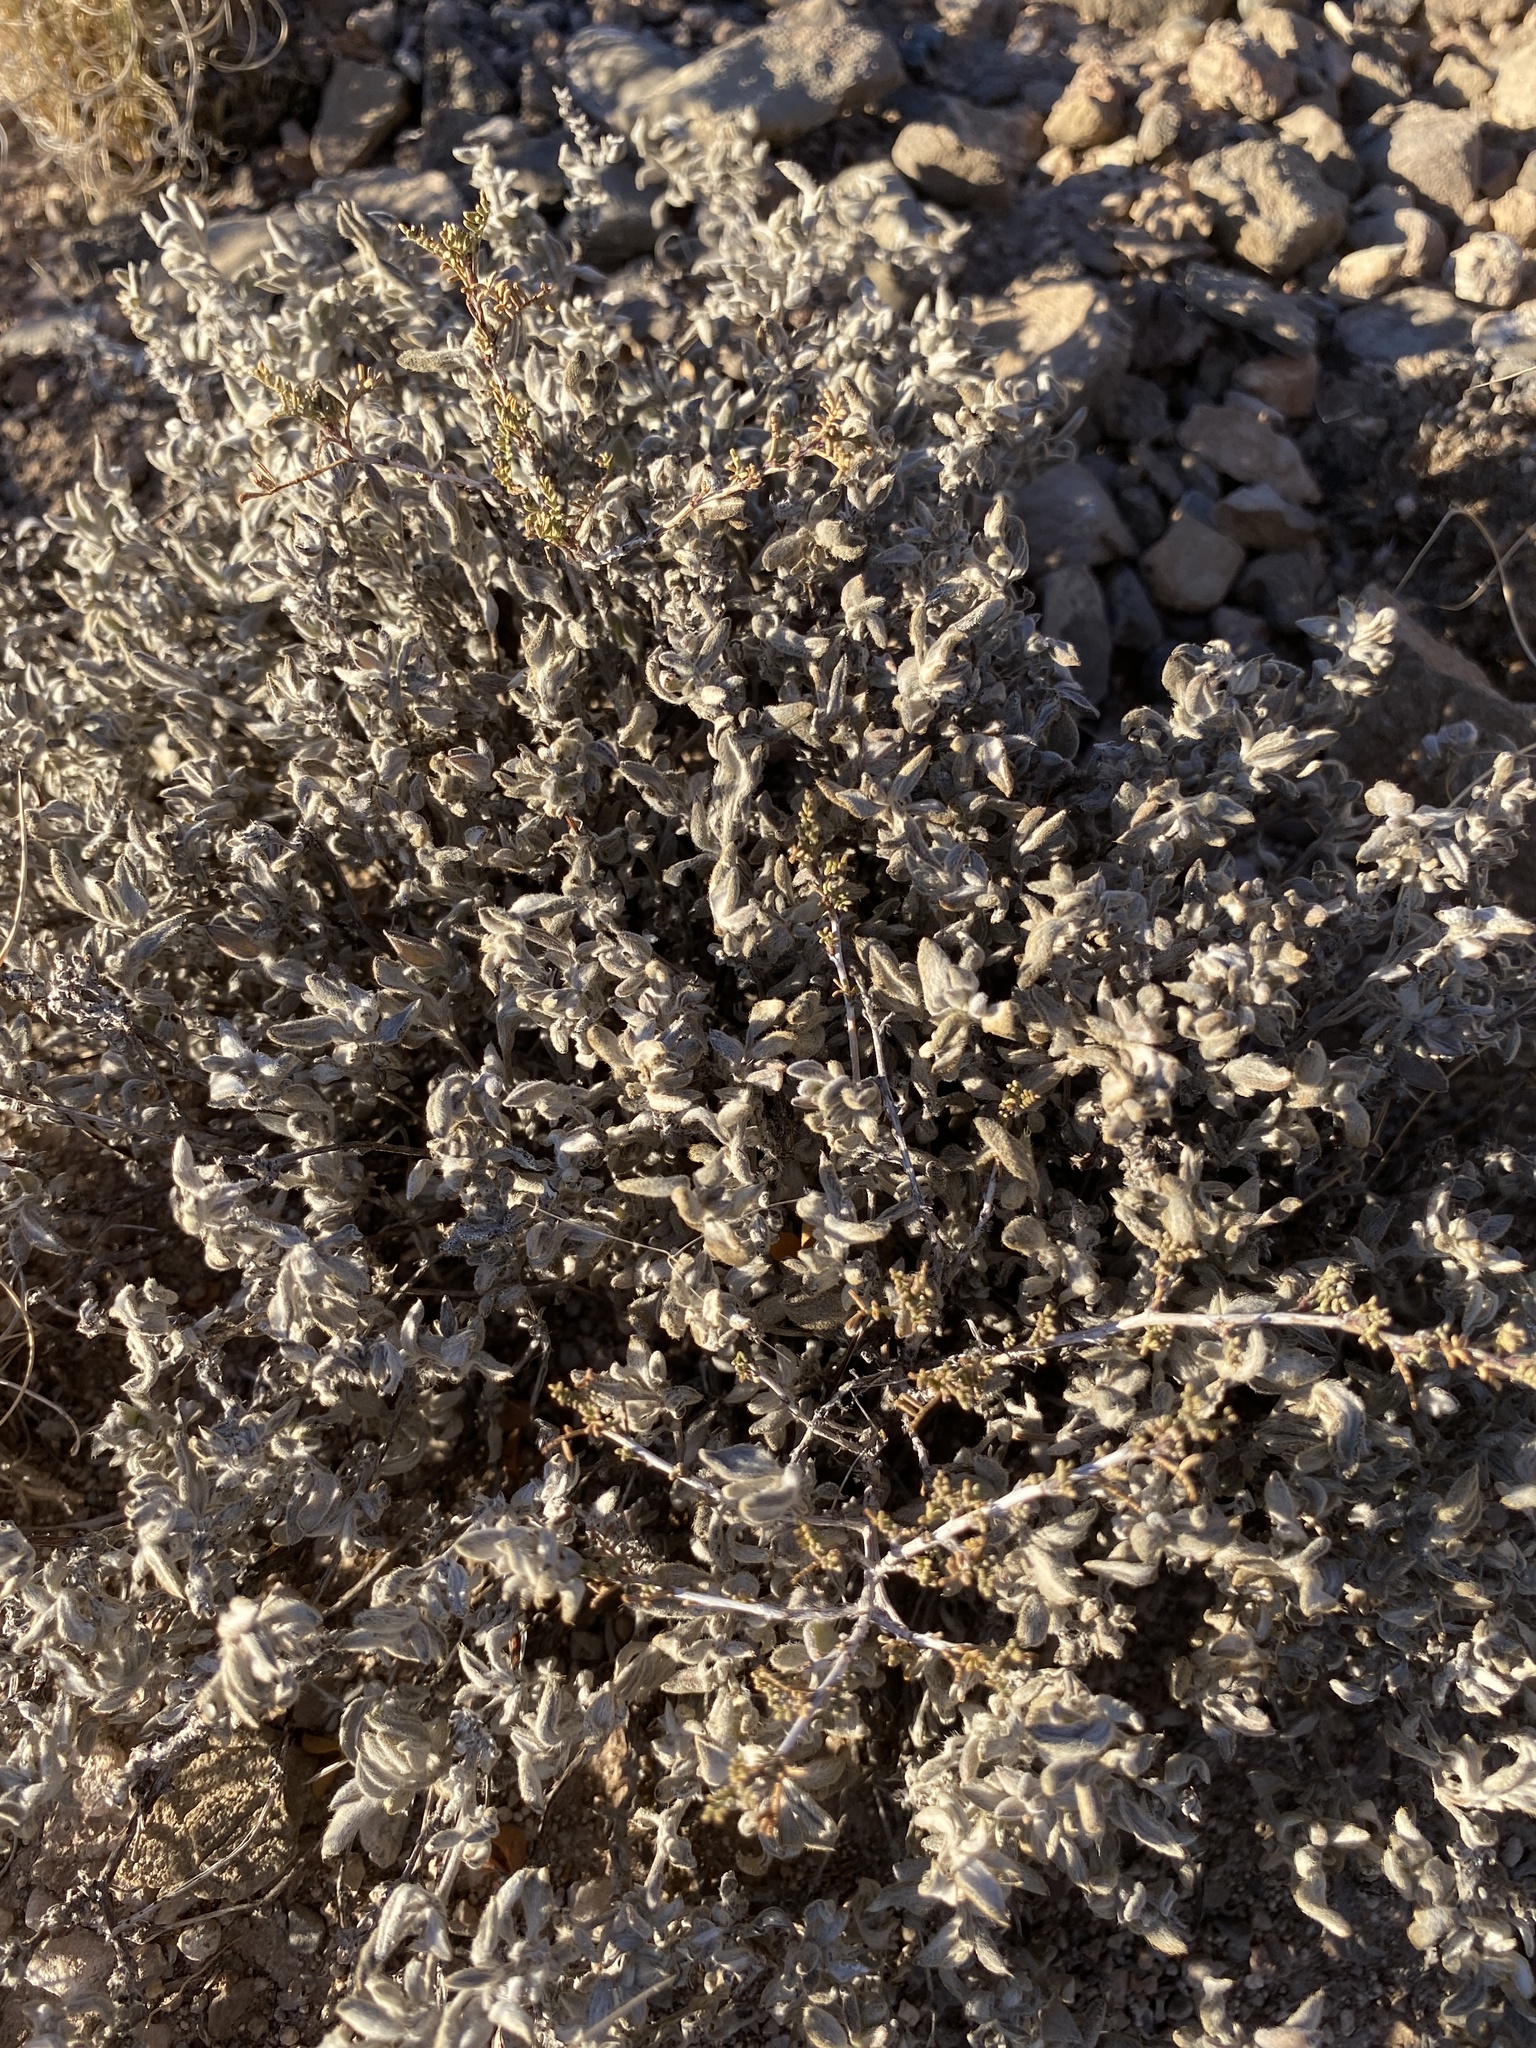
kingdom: Plantae
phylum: Tracheophyta
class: Magnoliopsida
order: Boraginales
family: Ehretiaceae
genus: Tiquilia
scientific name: Tiquilia canescens
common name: Hairy tiquilia
